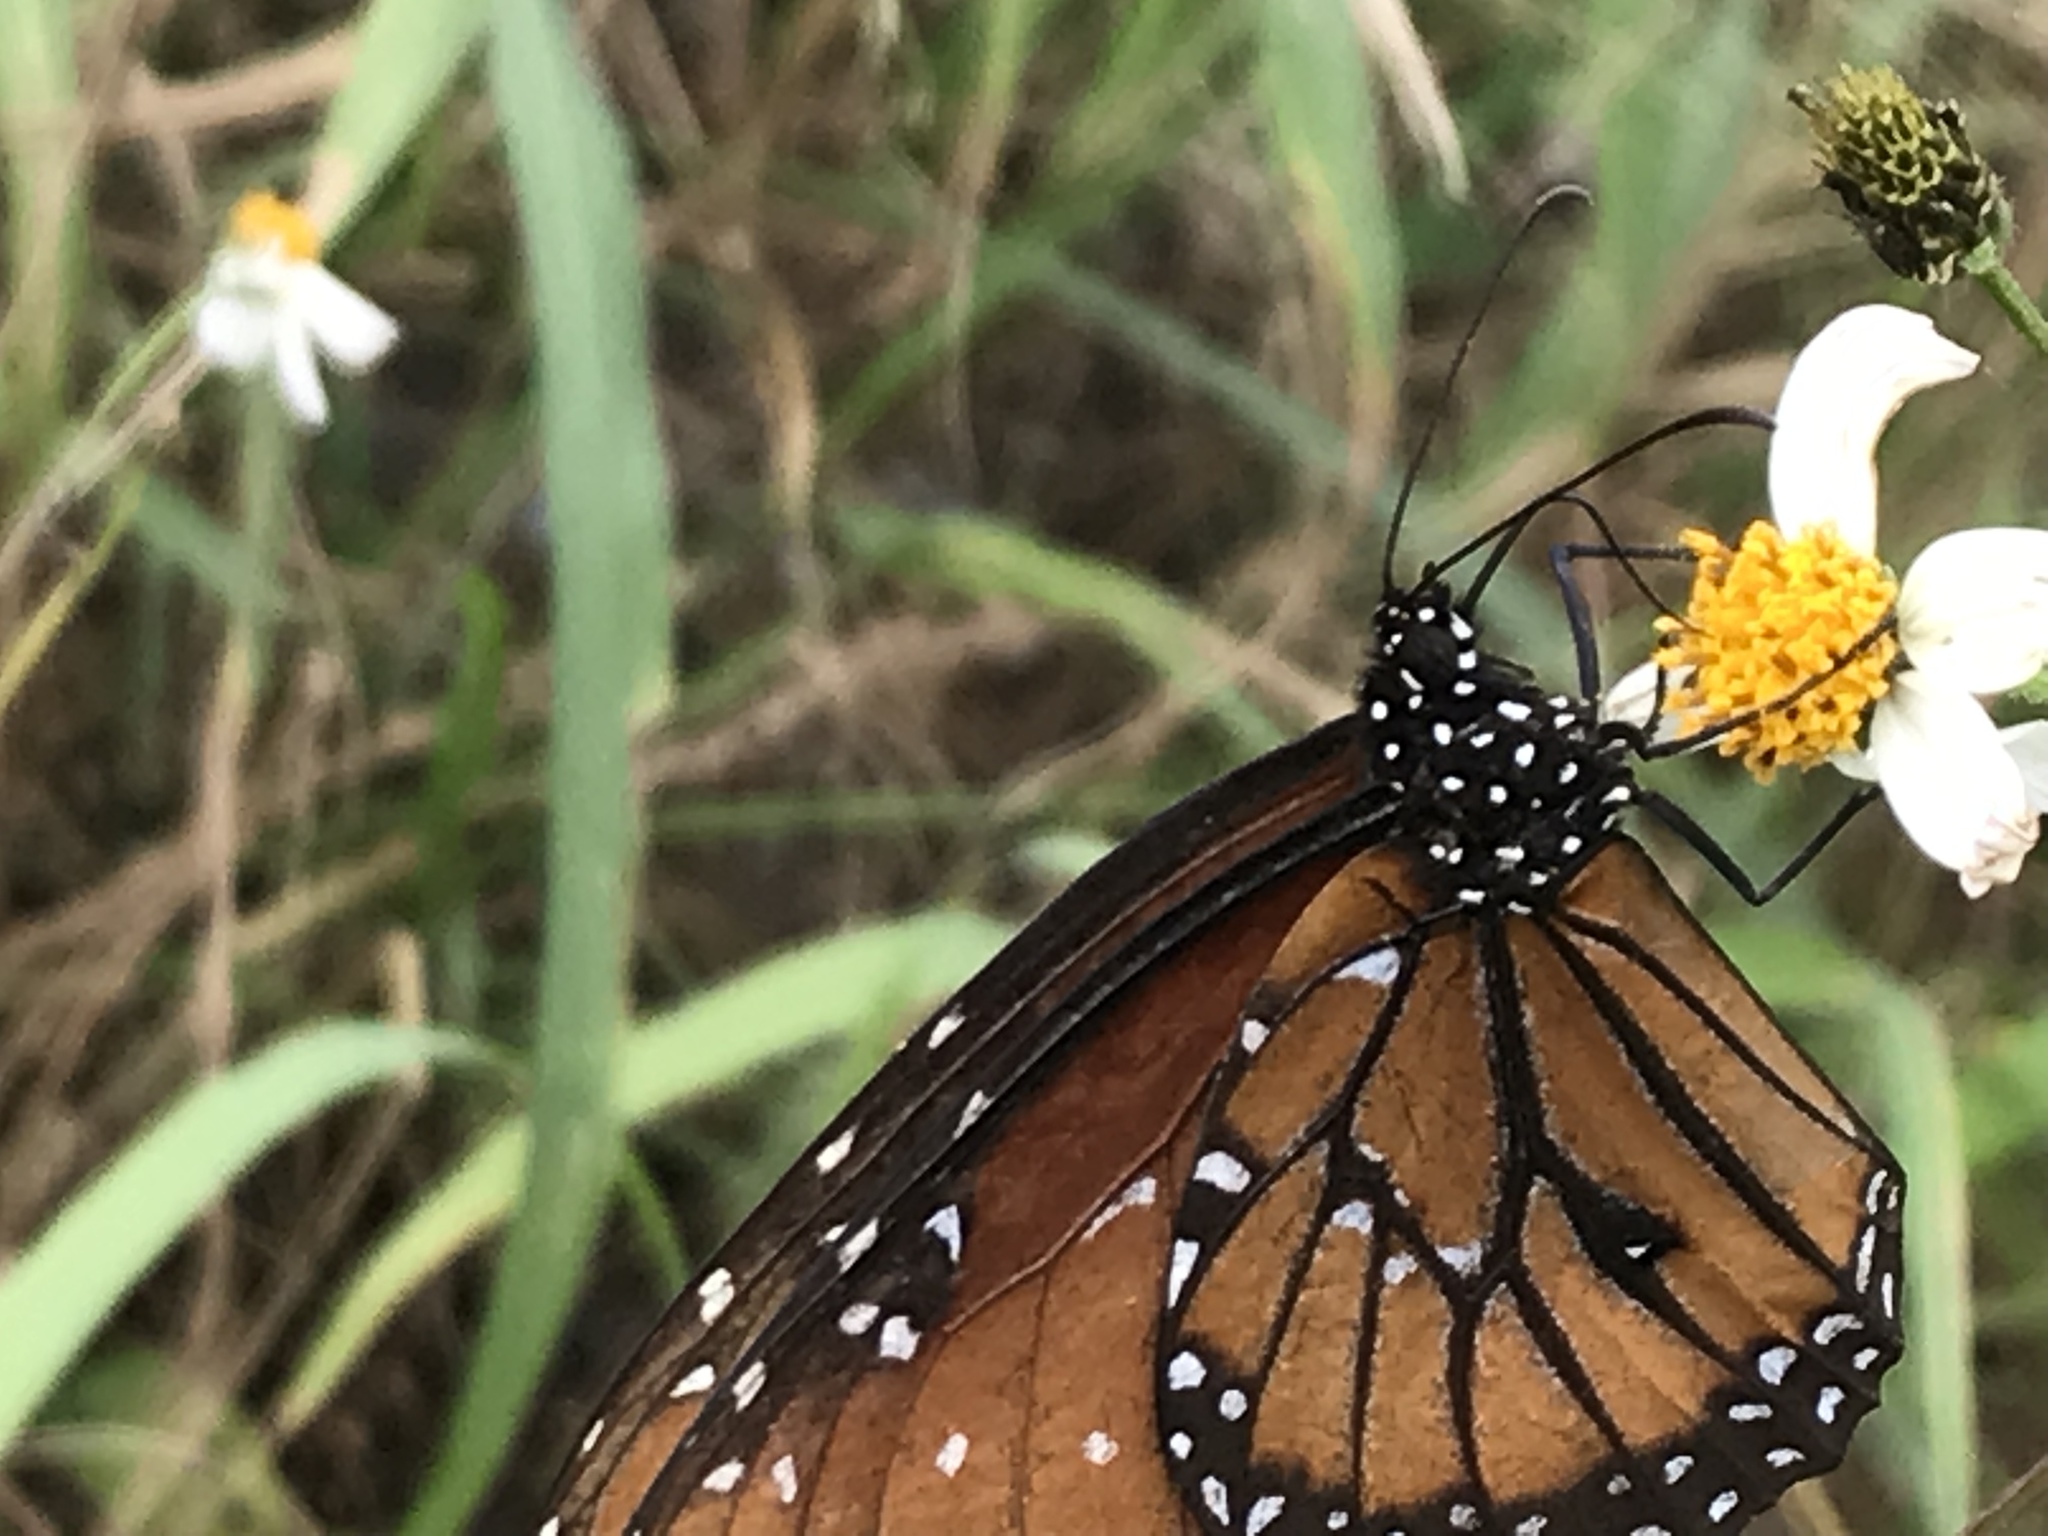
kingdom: Animalia
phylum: Arthropoda
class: Insecta
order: Lepidoptera
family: Nymphalidae
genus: Danaus
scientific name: Danaus gilippus
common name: Queen
